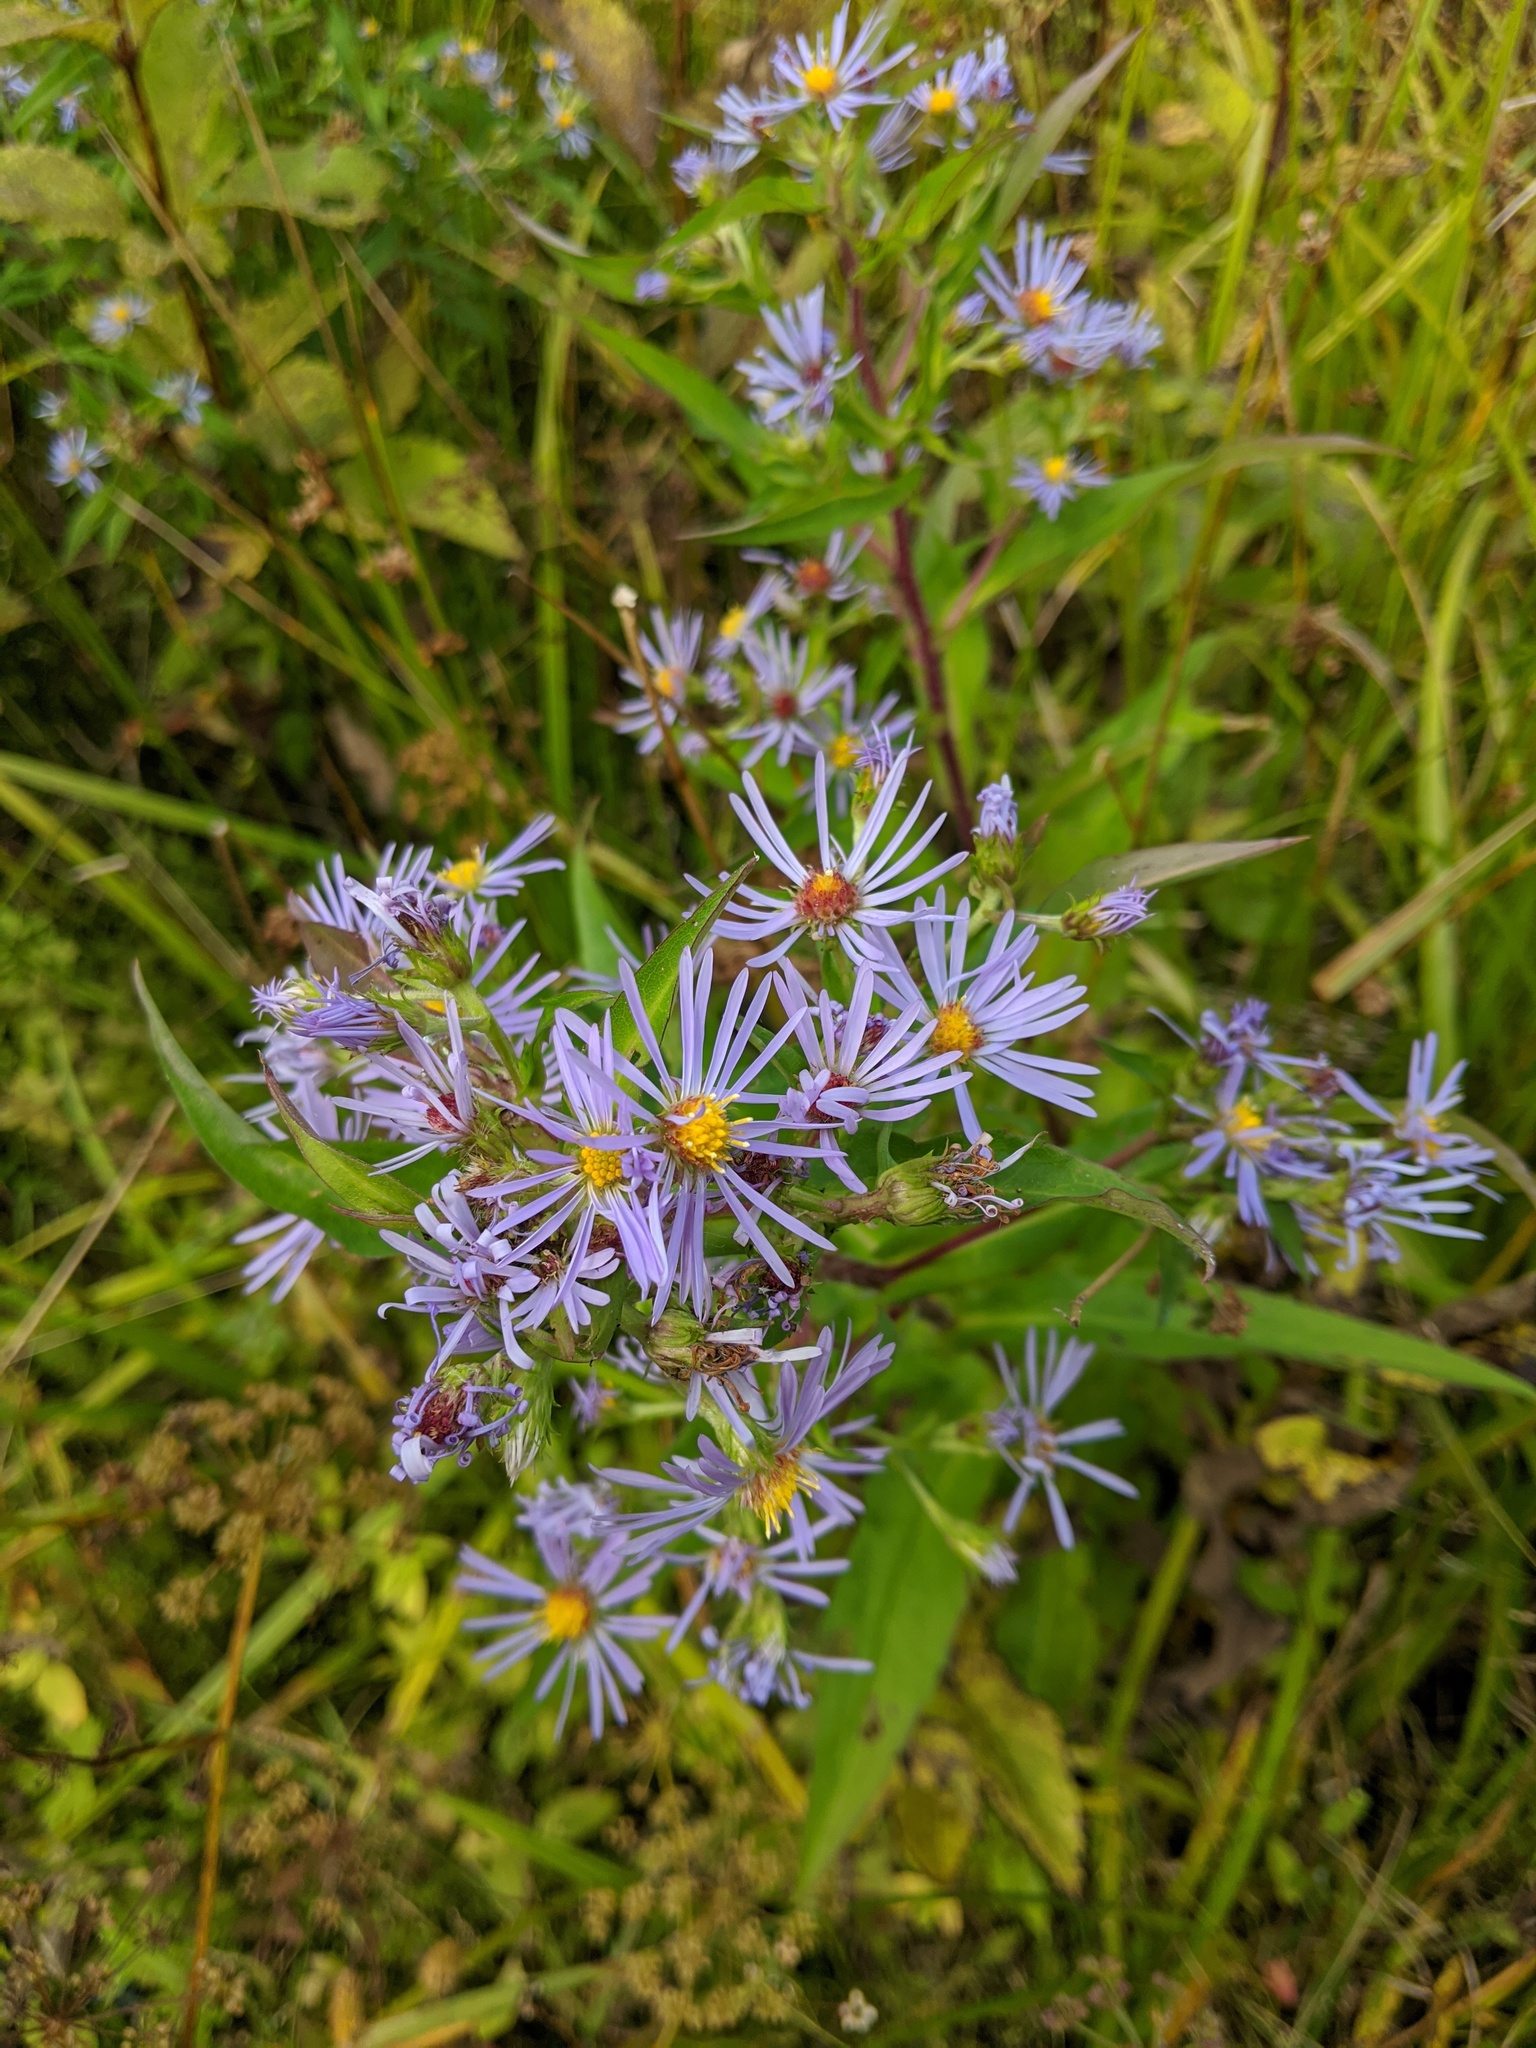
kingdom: Plantae
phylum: Tracheophyta
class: Magnoliopsida
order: Asterales
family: Asteraceae
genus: Symphyotrichum
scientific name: Symphyotrichum puniceum
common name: Bog aster
